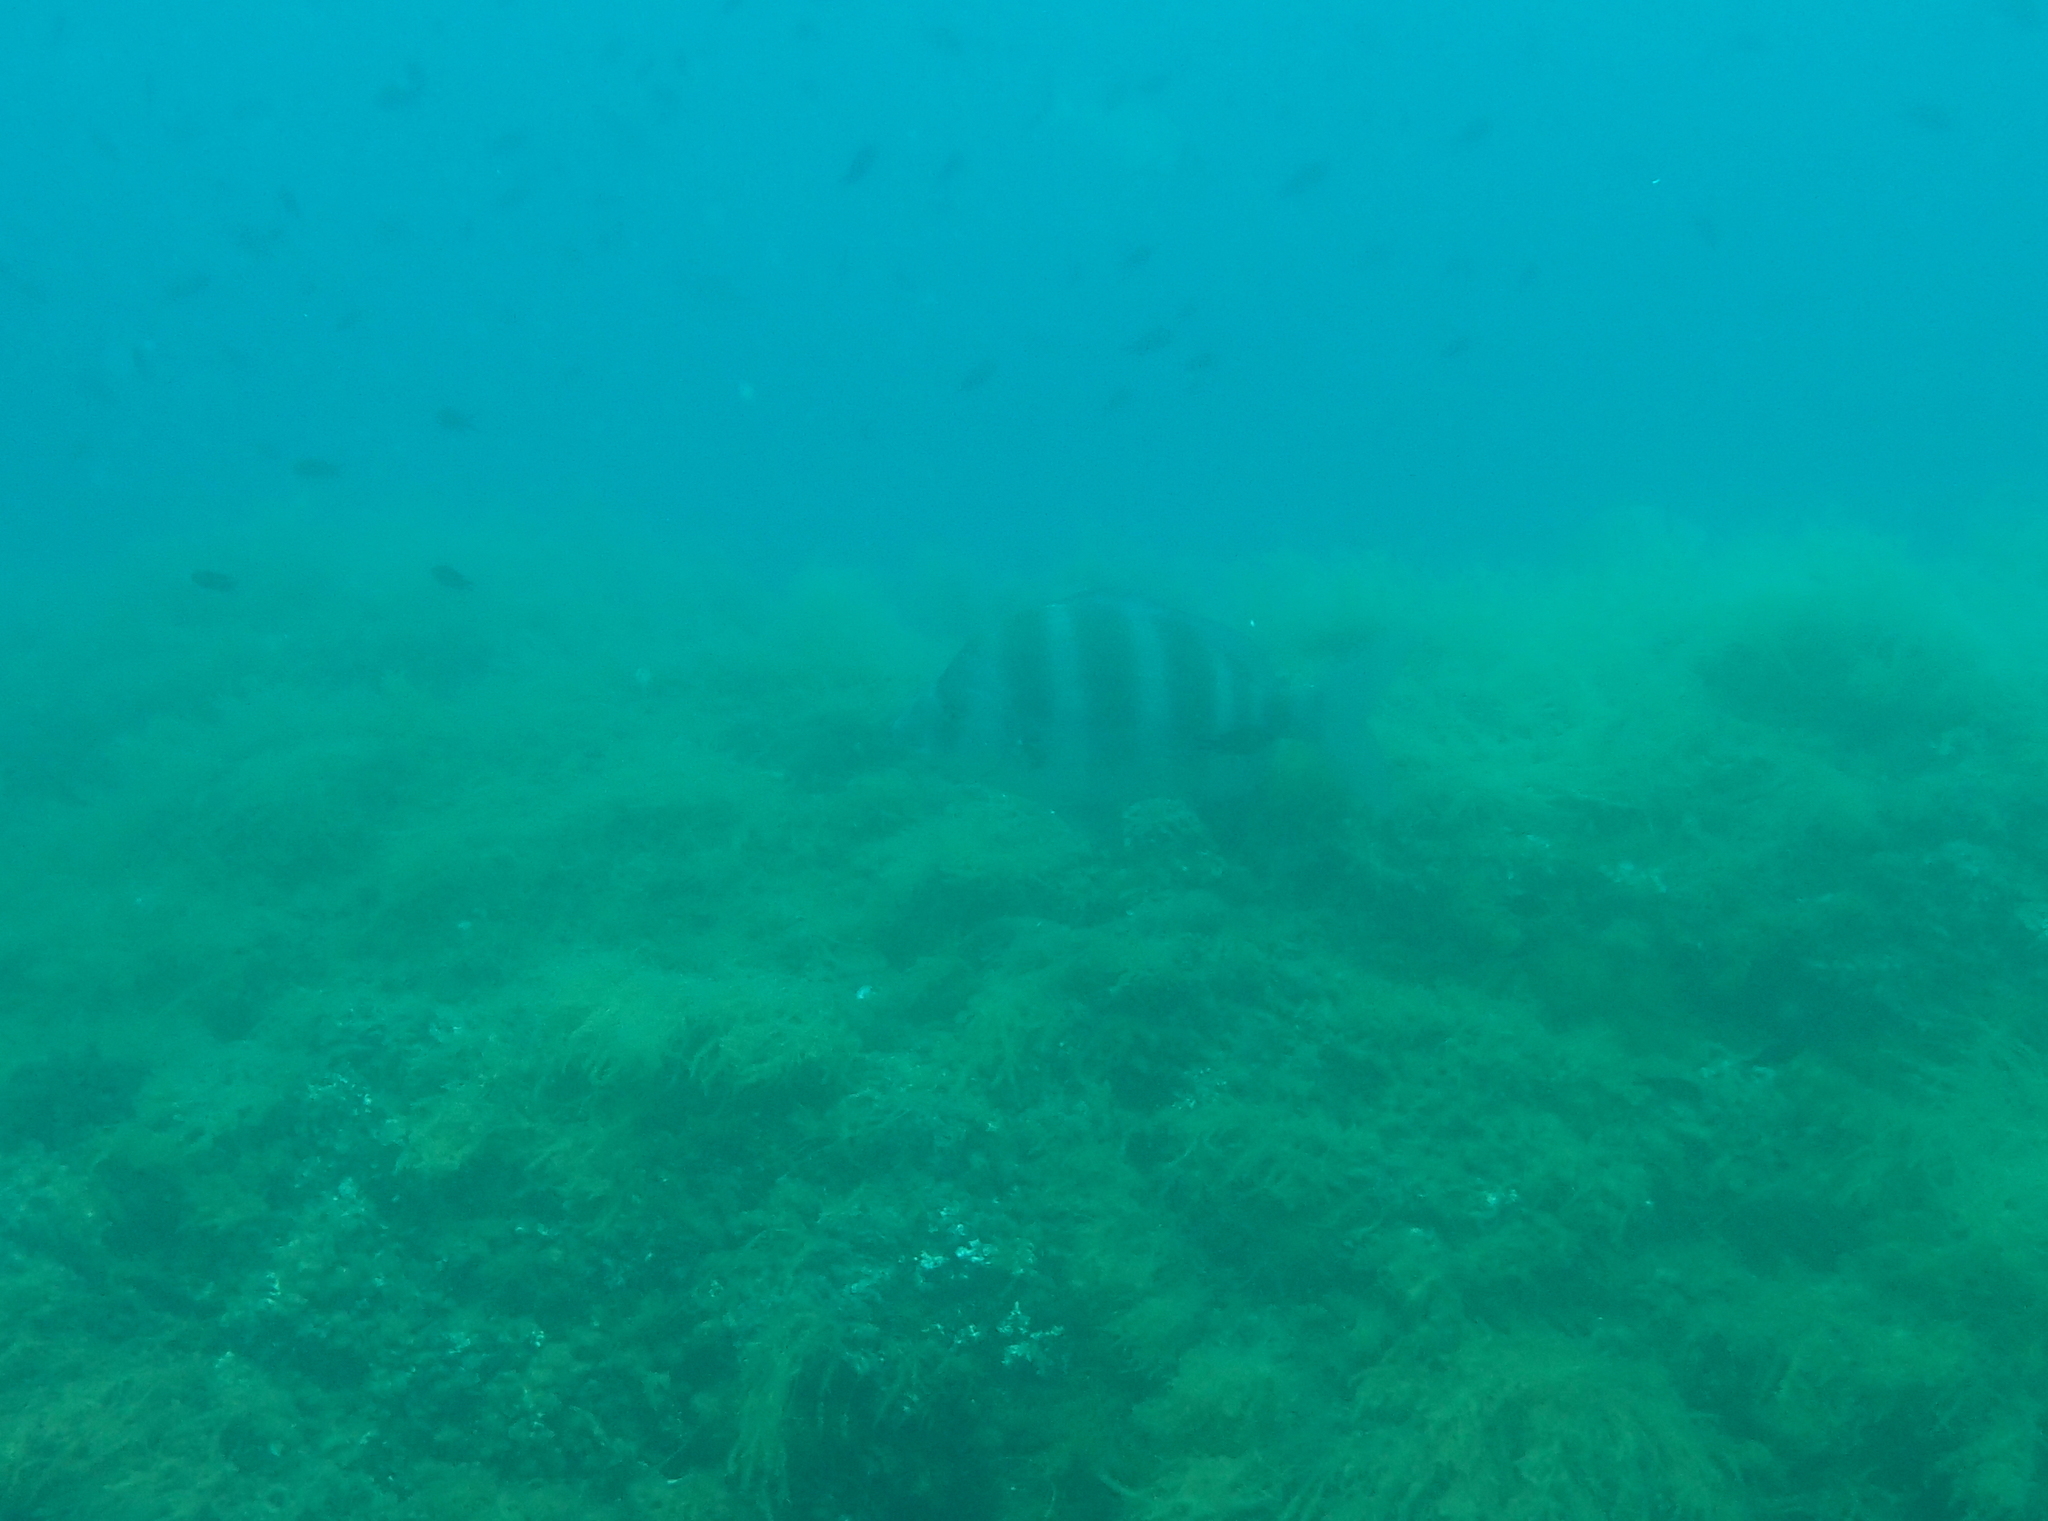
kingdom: Animalia
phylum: Chordata
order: Perciformes
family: Sparidae
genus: Diplodus
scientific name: Diplodus cervinus
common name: Oman porgy
